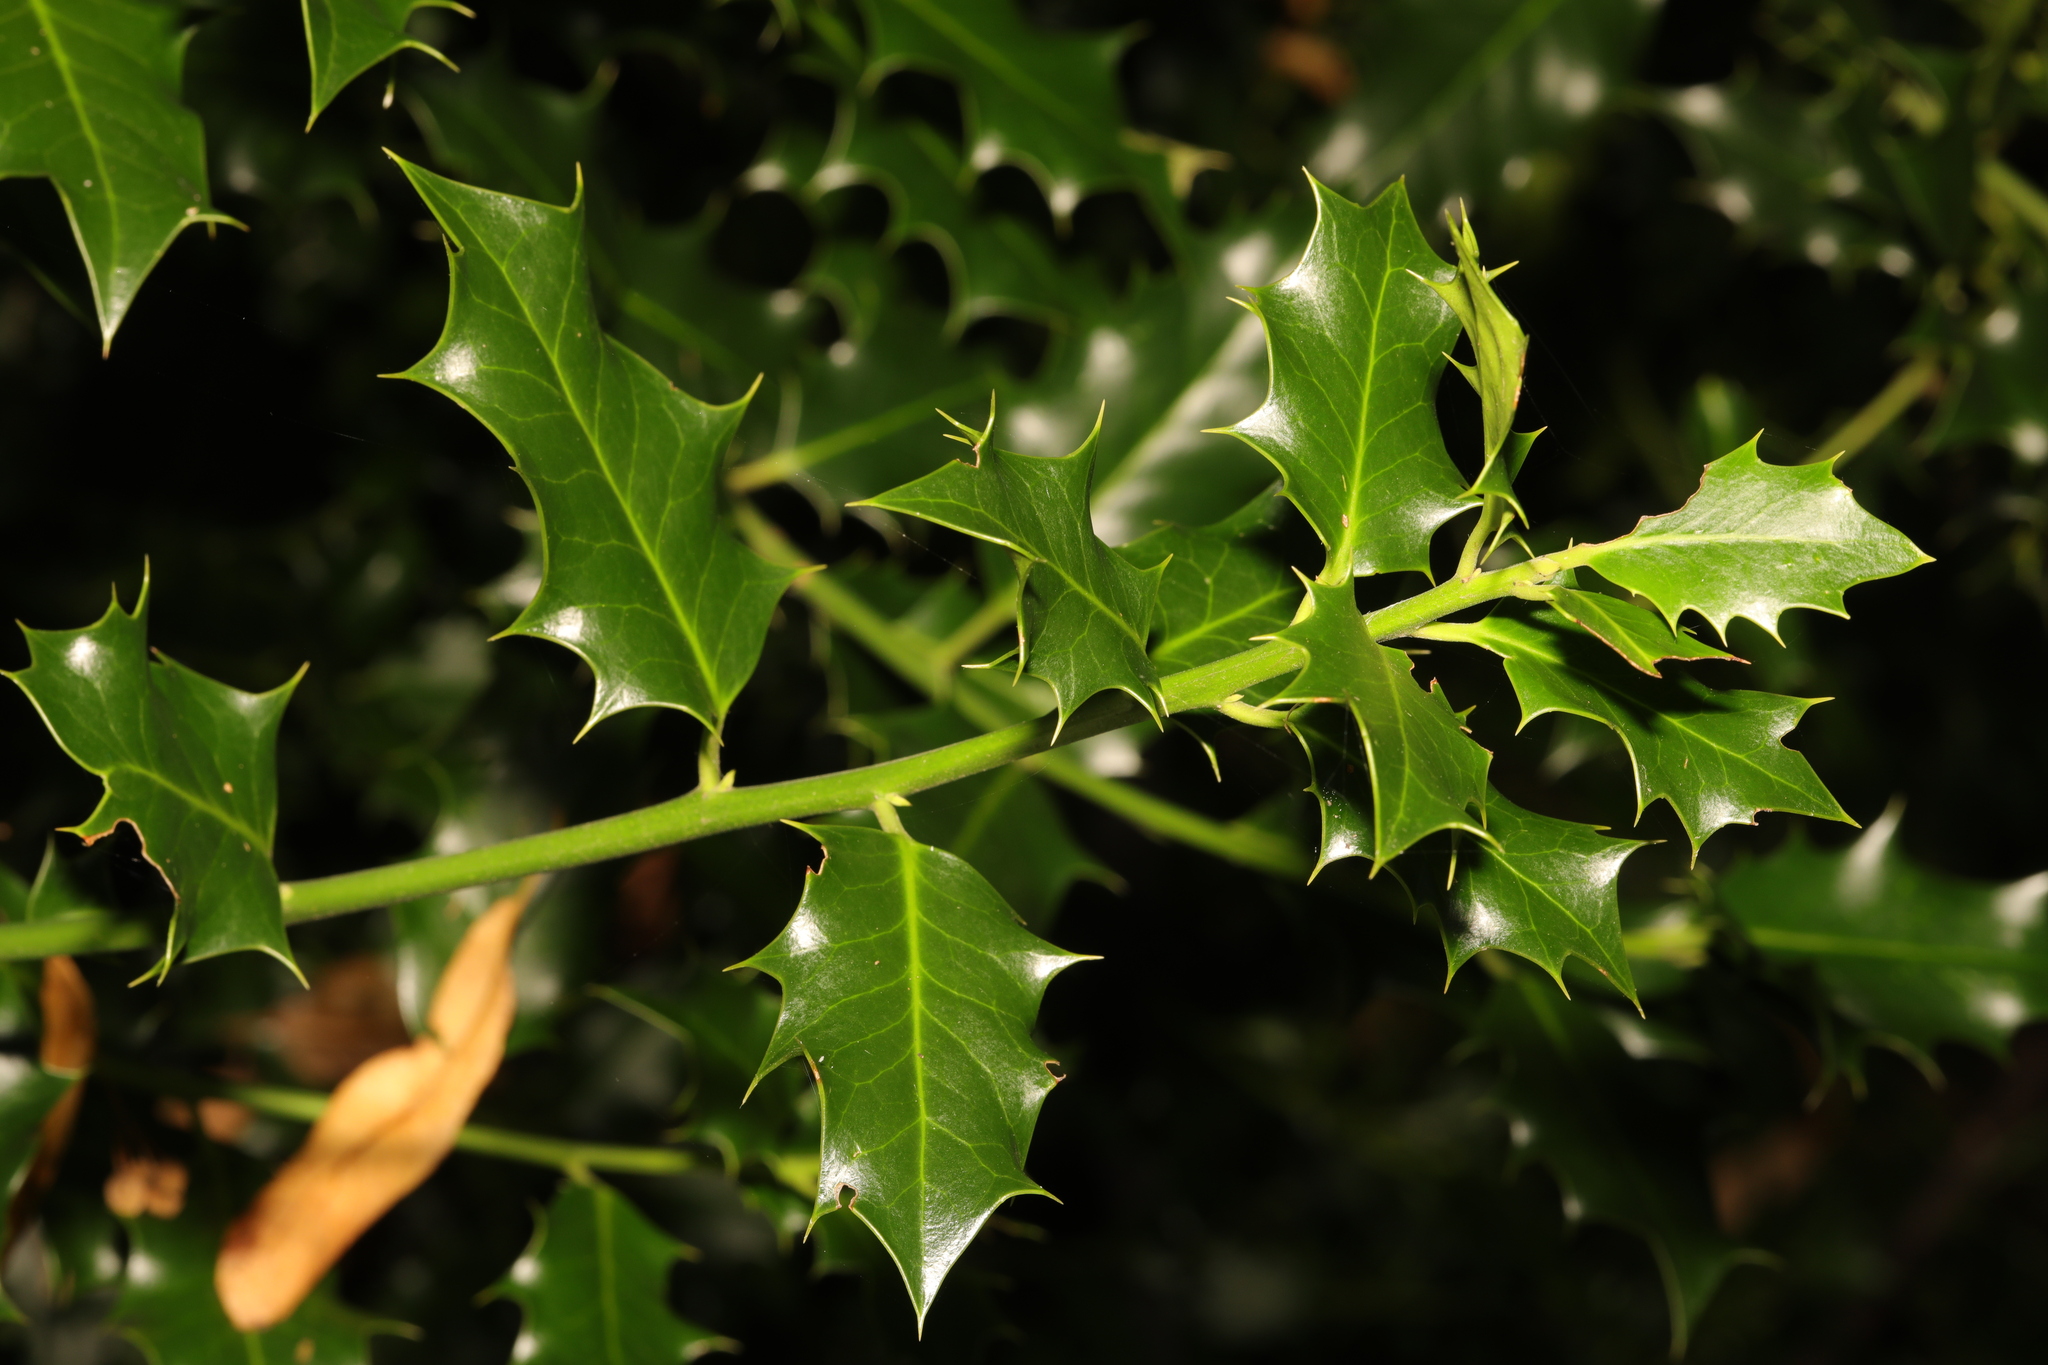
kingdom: Plantae
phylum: Tracheophyta
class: Magnoliopsida
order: Aquifoliales
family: Aquifoliaceae
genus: Ilex
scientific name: Ilex aquifolium
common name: English holly
